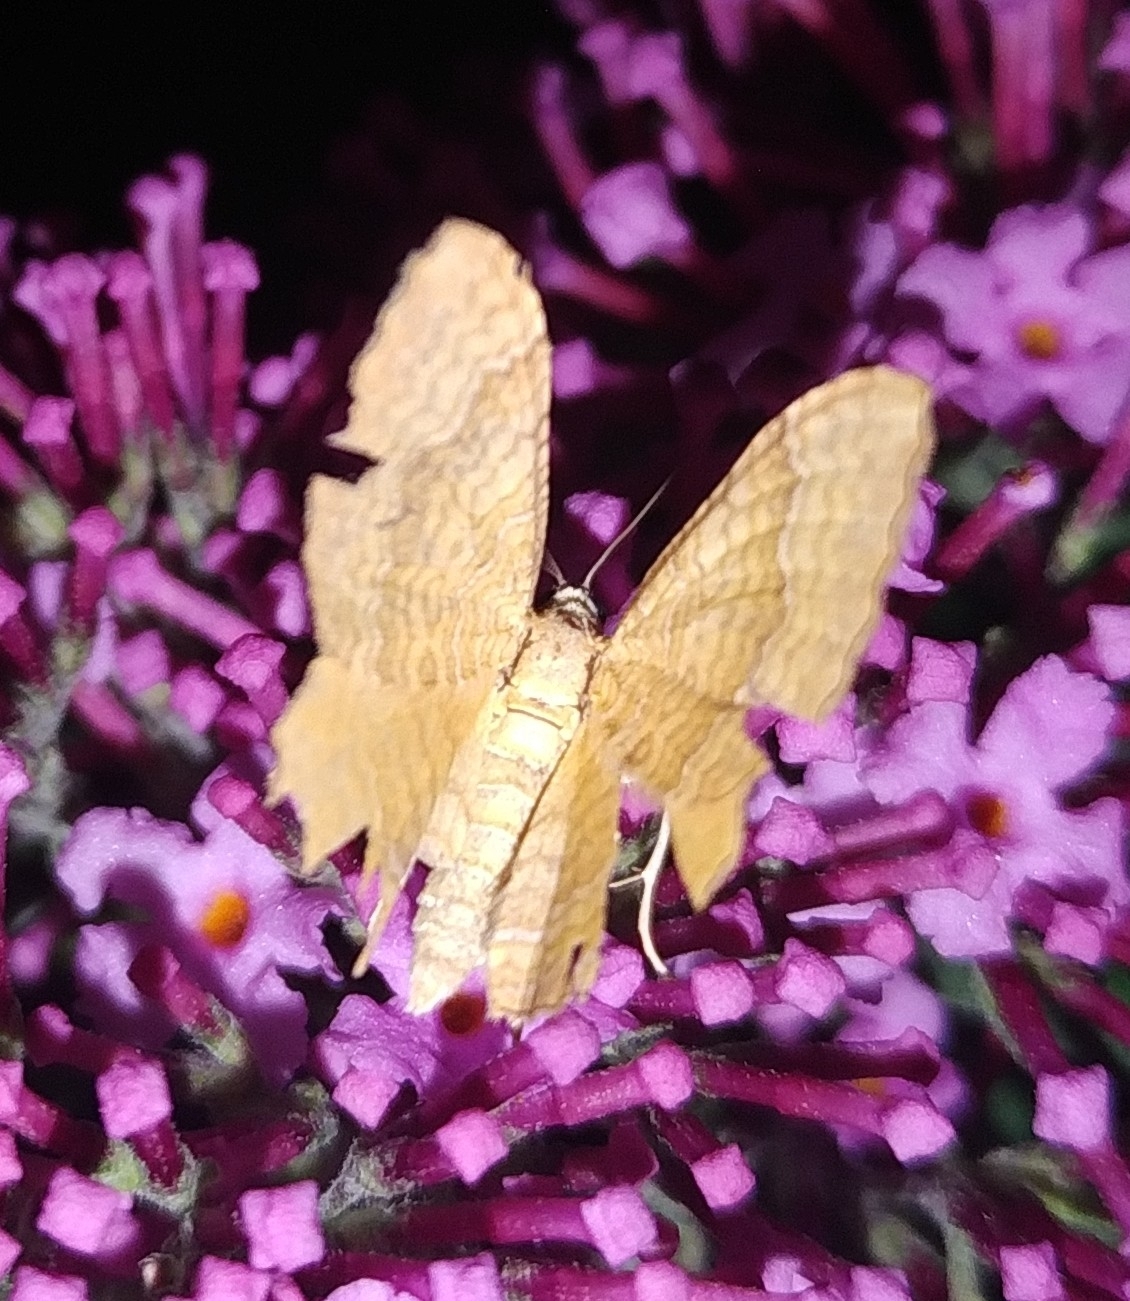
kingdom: Animalia
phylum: Arthropoda
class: Insecta
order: Lepidoptera
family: Geometridae
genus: Camptogramma
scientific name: Camptogramma bilineata
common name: Yellow shell
